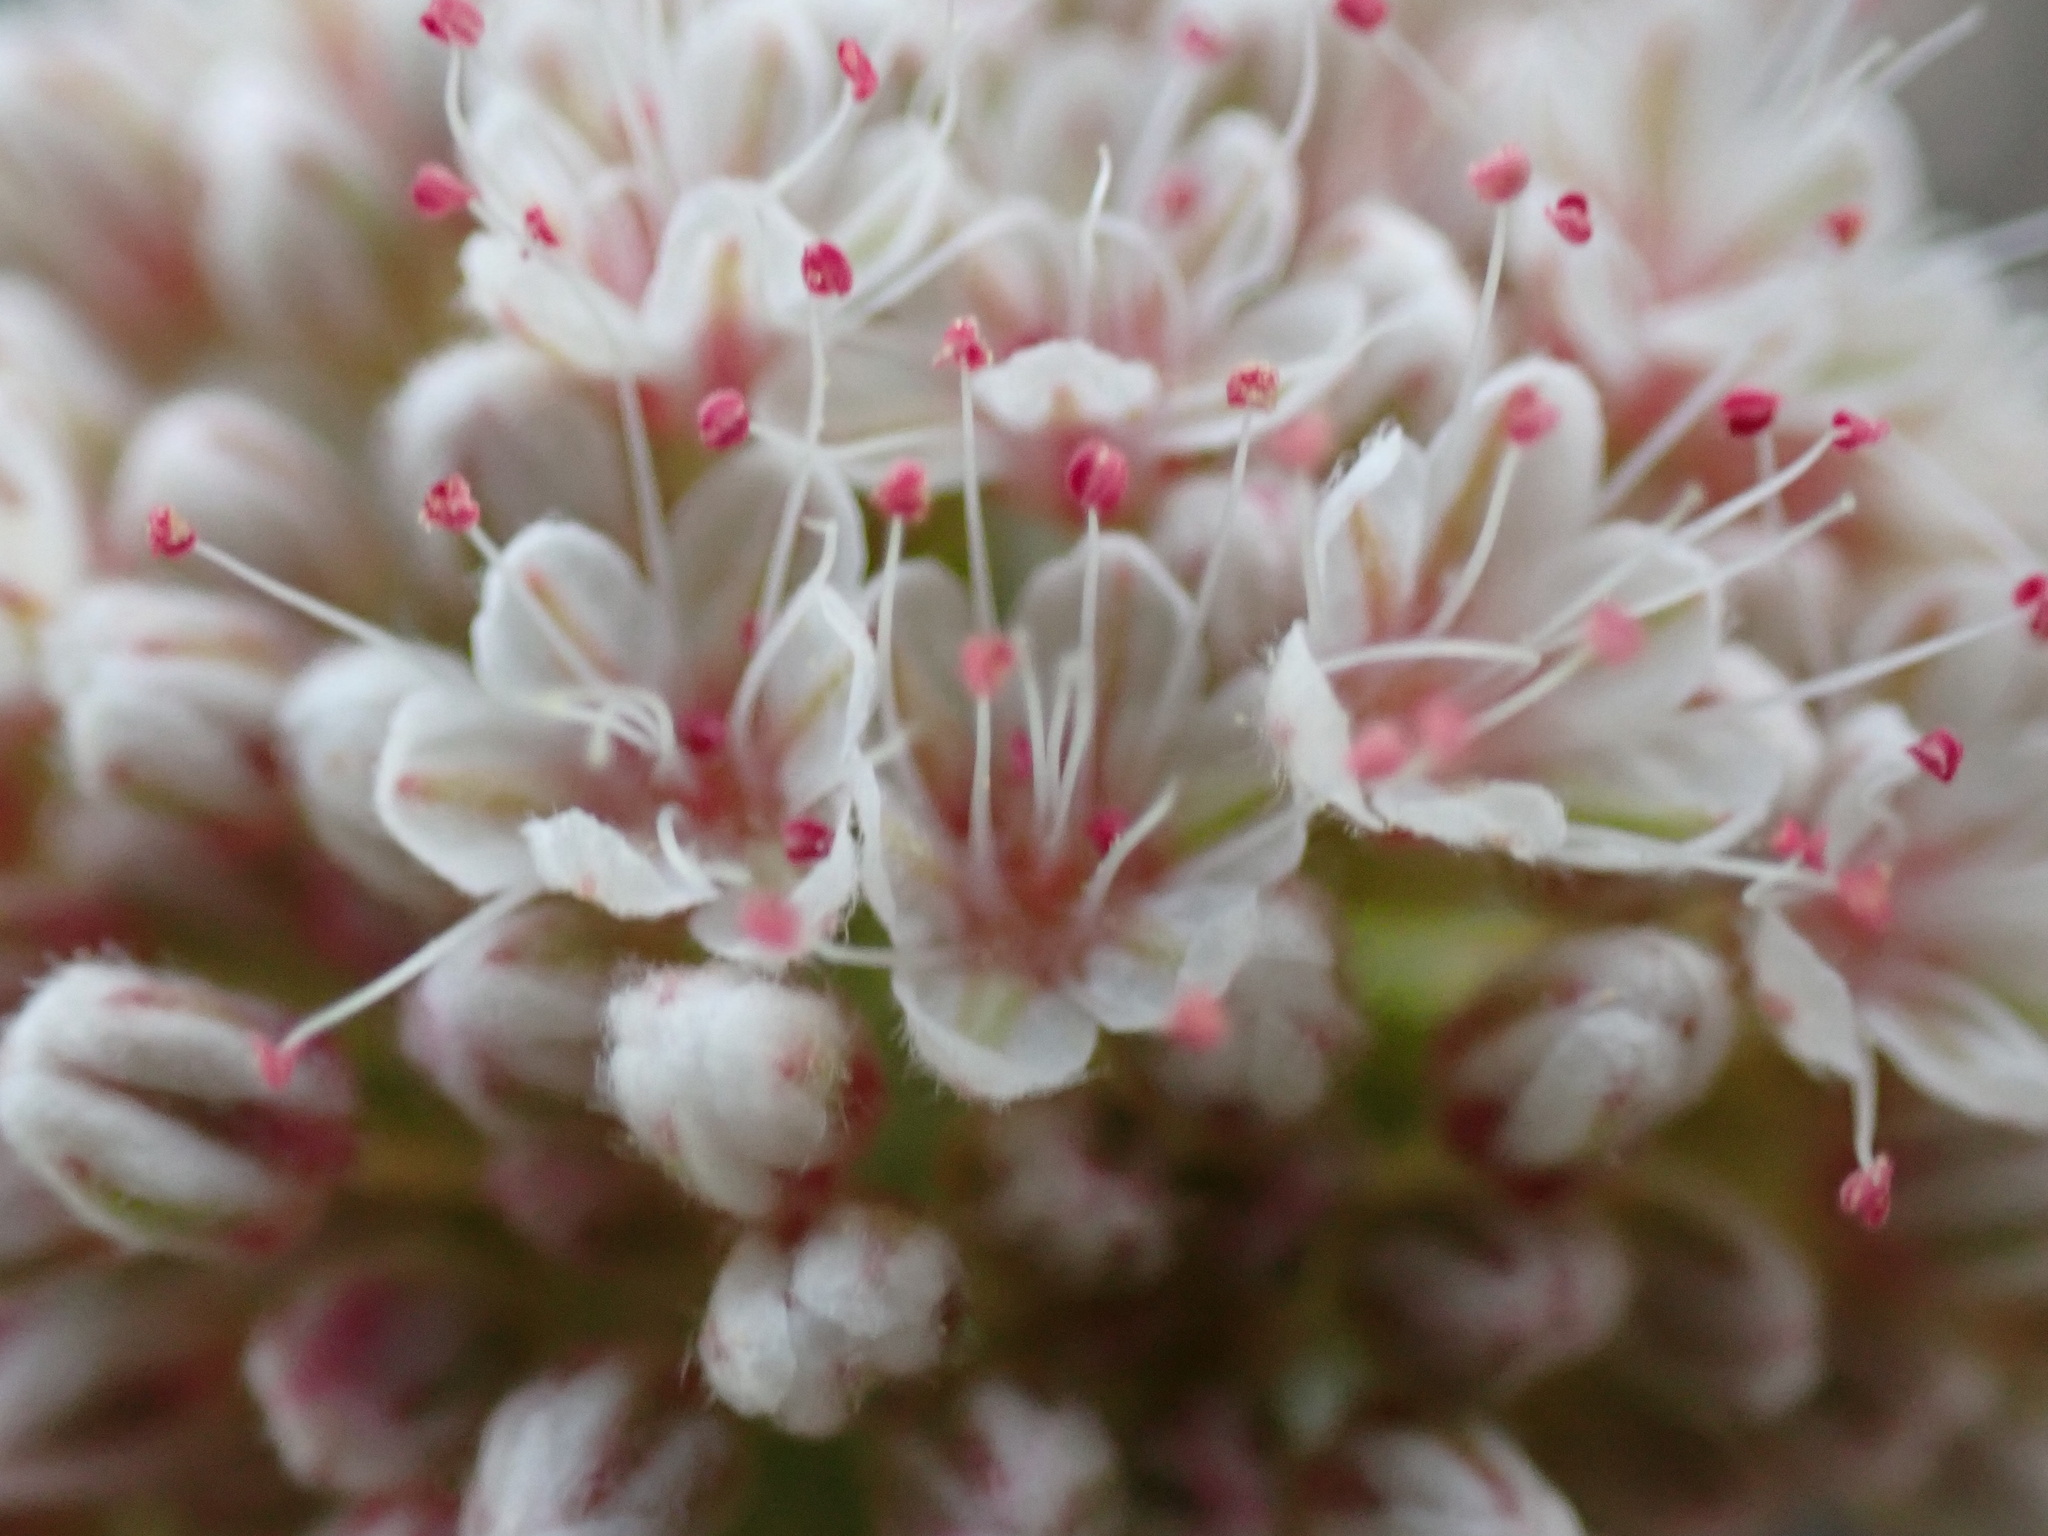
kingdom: Plantae
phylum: Tracheophyta
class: Magnoliopsida
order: Caryophyllales
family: Polygonaceae
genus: Eriogonum
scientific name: Eriogonum fasciculatum
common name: California wild buckwheat
